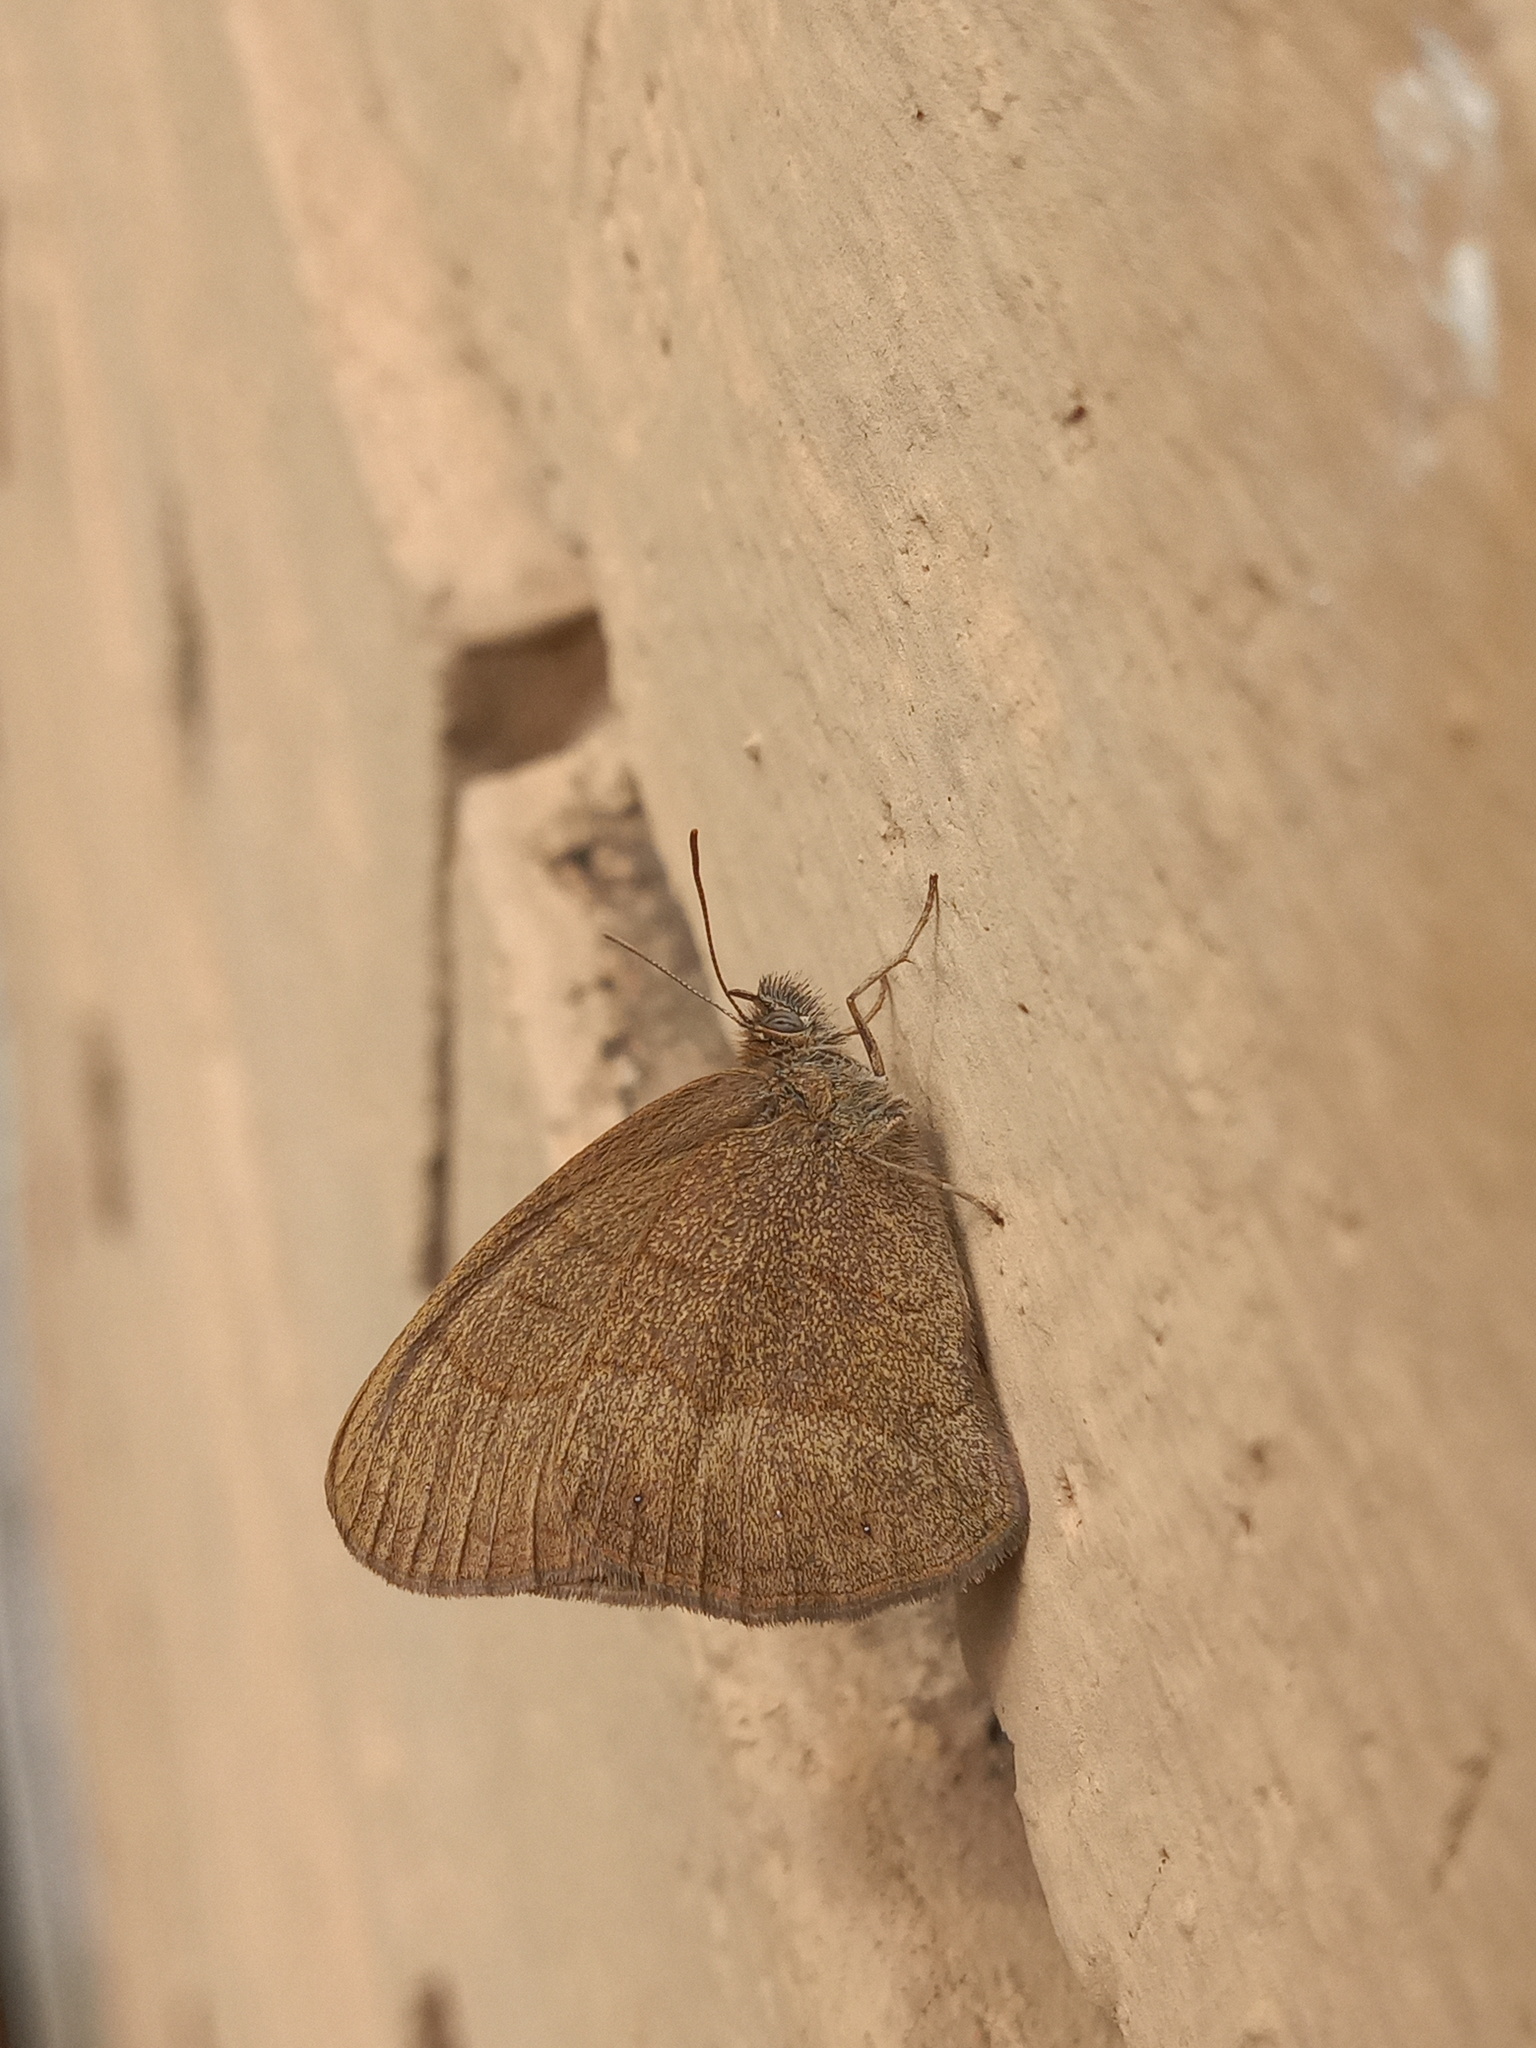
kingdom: Animalia
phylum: Arthropoda
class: Insecta
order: Lepidoptera
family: Nymphalidae
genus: Hermeuptychia
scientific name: Hermeuptychia hermybius
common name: South texas satyr
